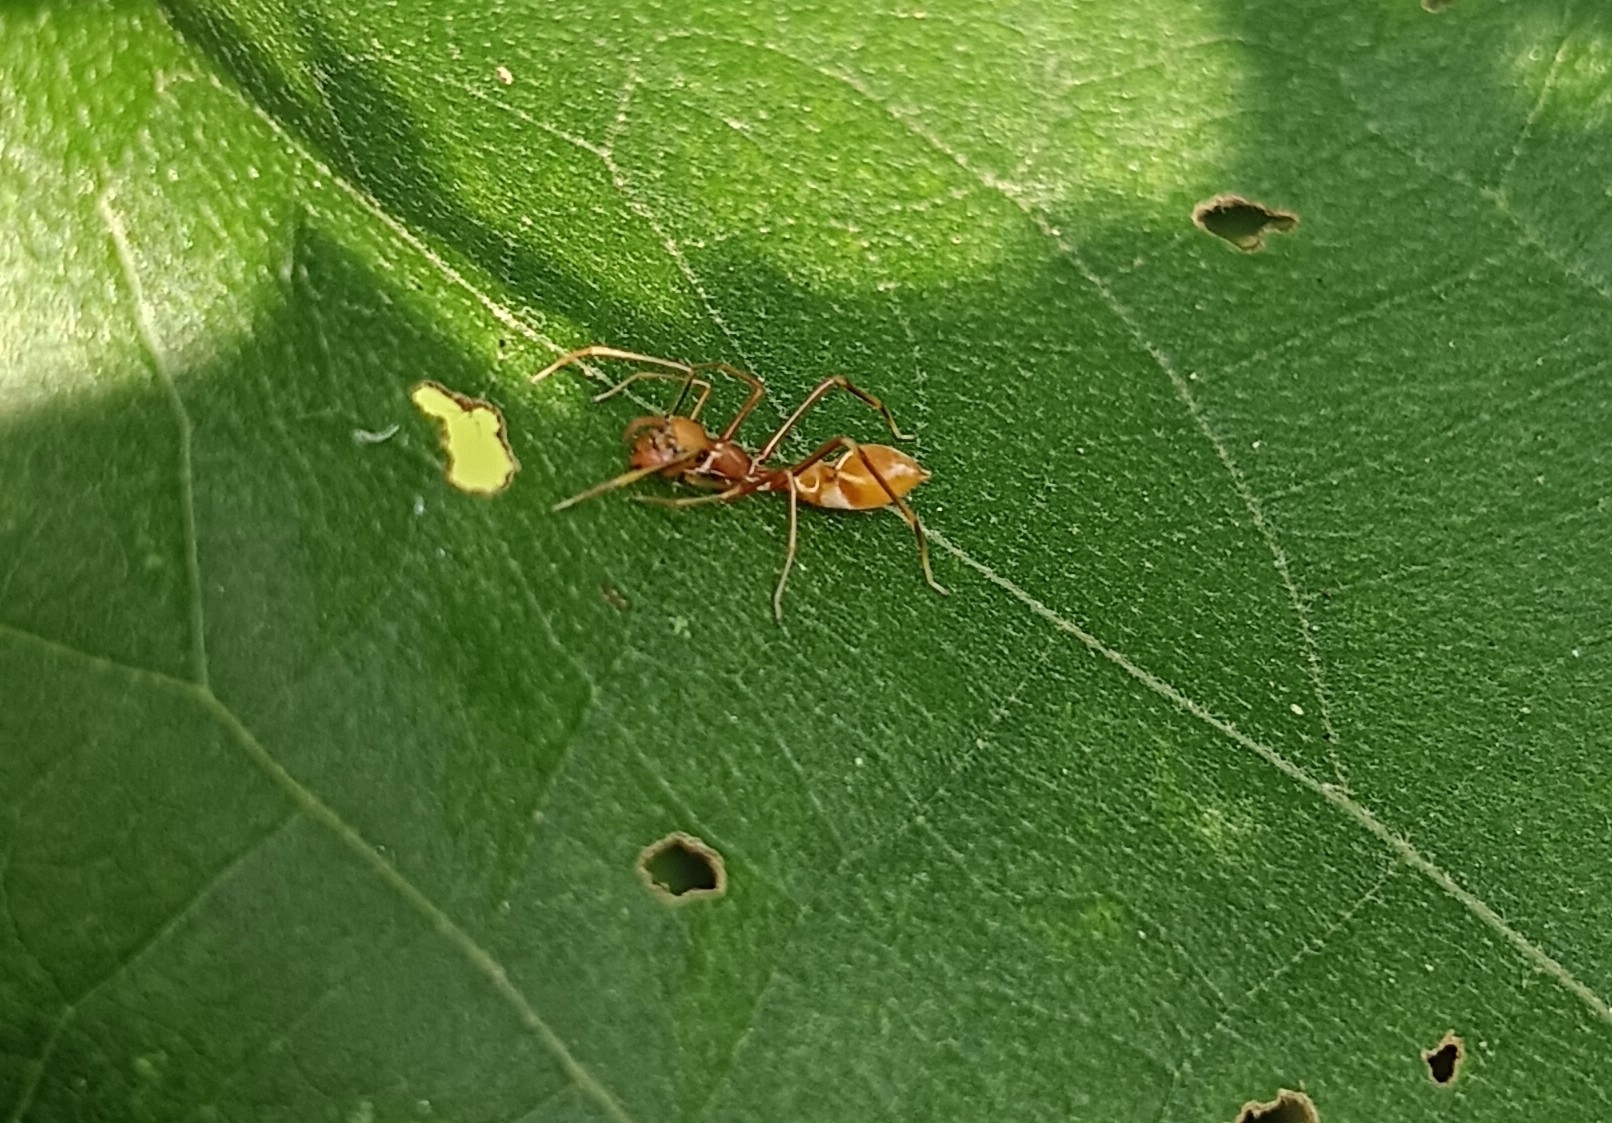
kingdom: Animalia
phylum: Arthropoda
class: Arachnida
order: Araneae
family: Salticidae
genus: Myrmaplata
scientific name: Myrmaplata plataleoides
